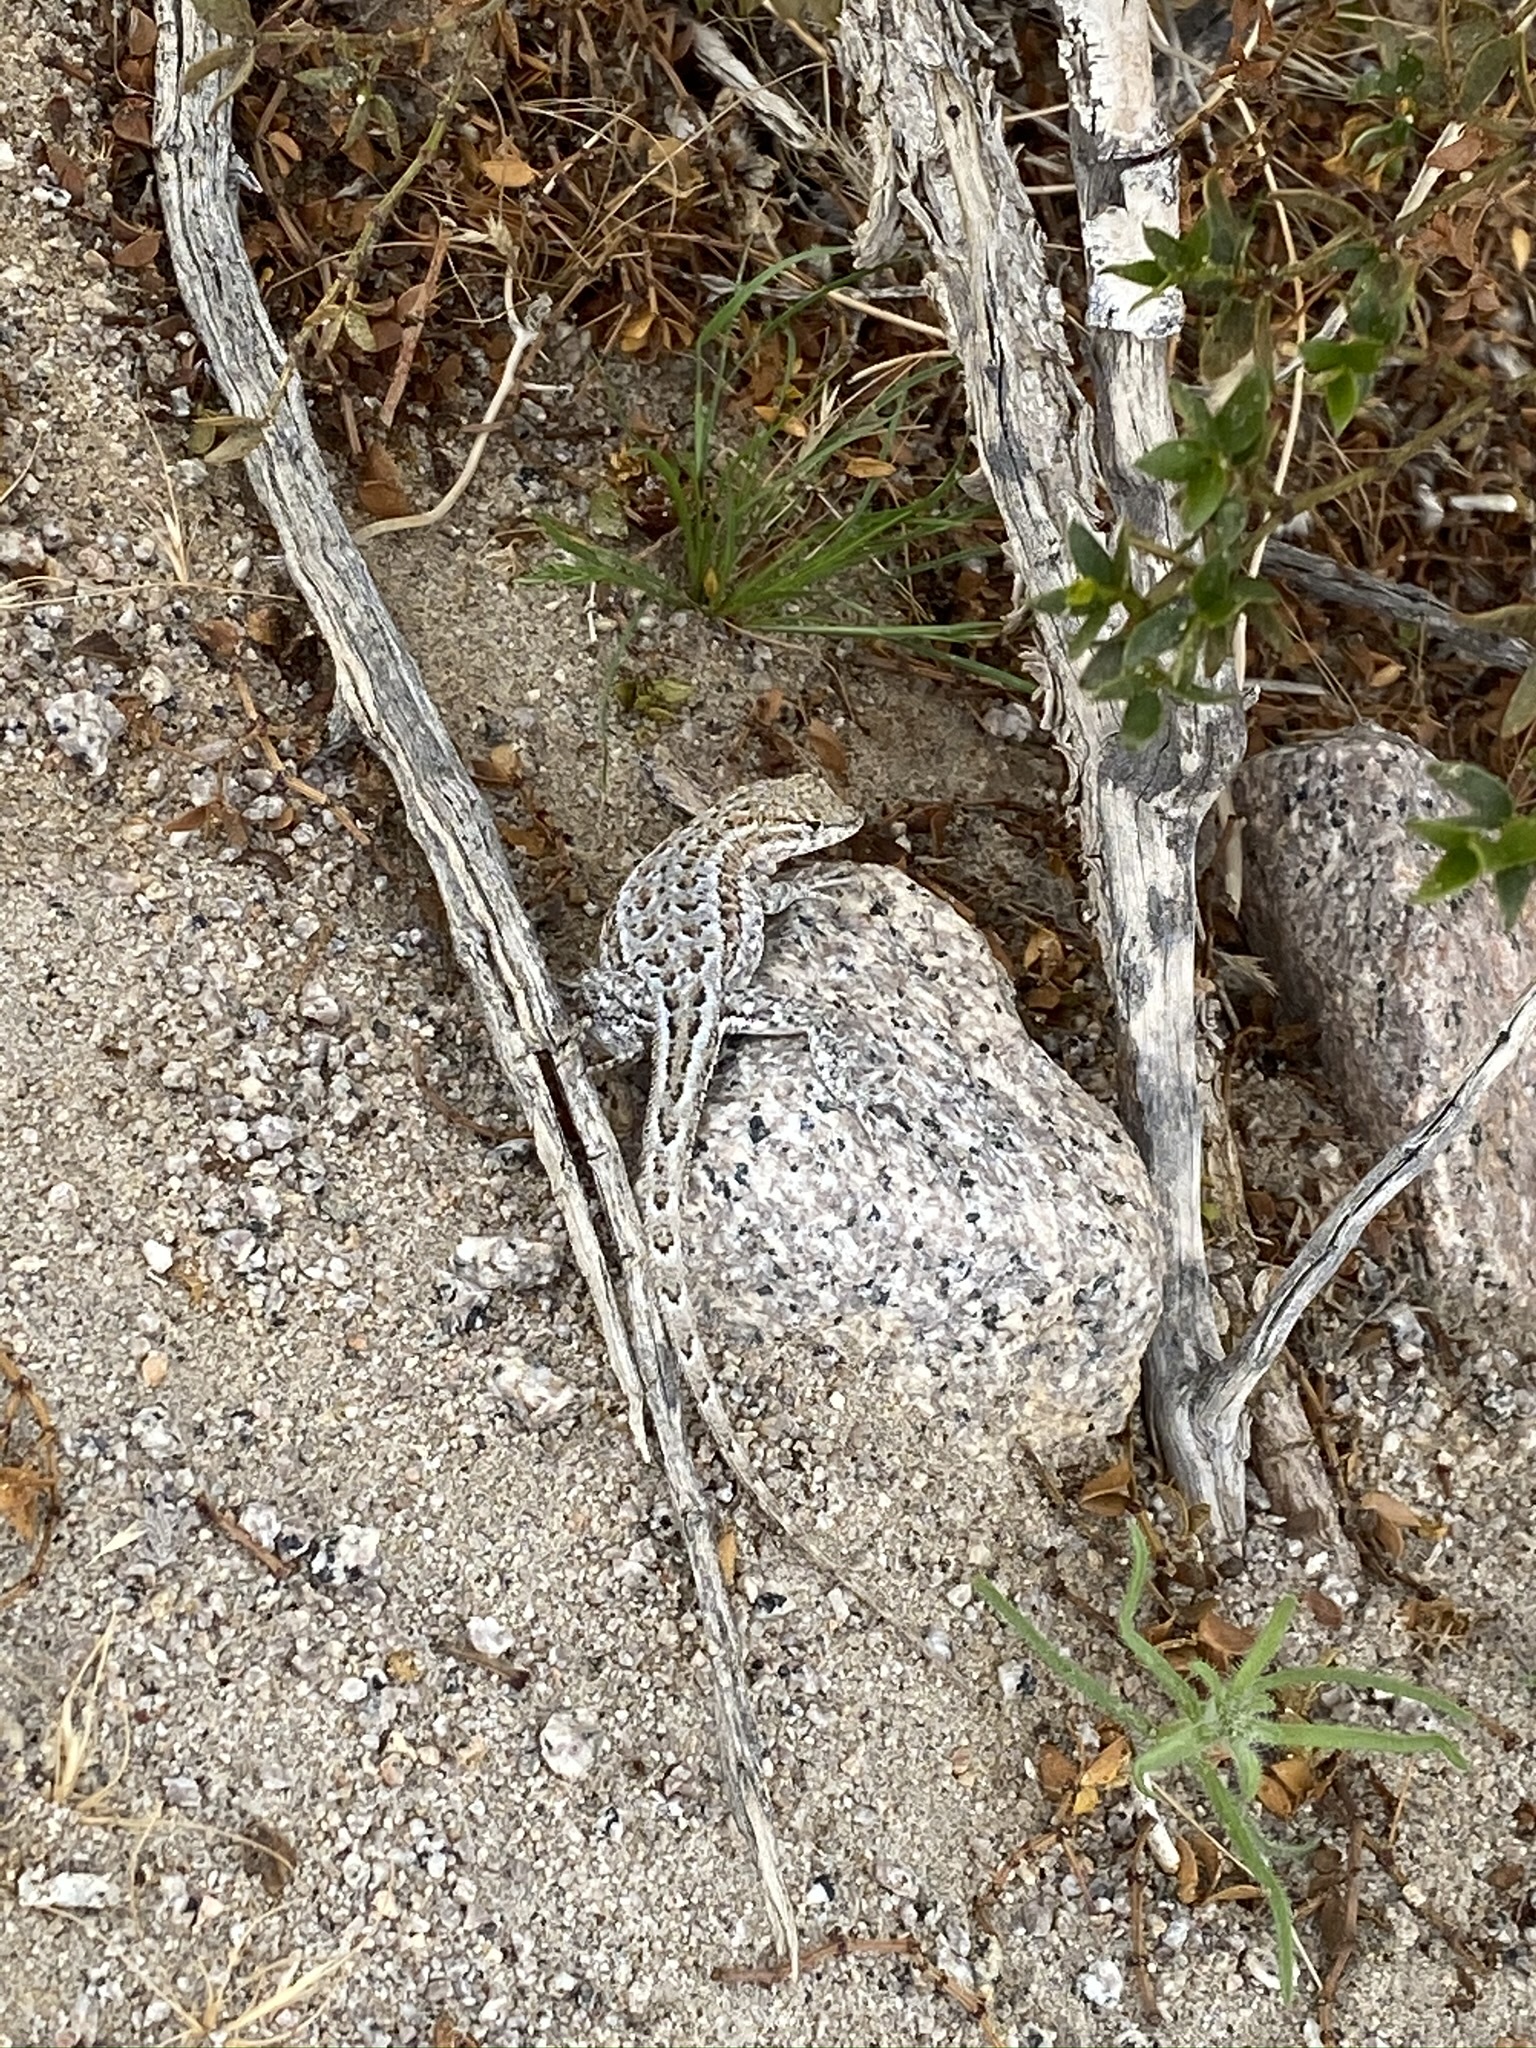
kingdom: Animalia
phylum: Chordata
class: Squamata
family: Phrynosomatidae
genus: Uta
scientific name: Uta stansburiana
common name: Side-blotched lizard
